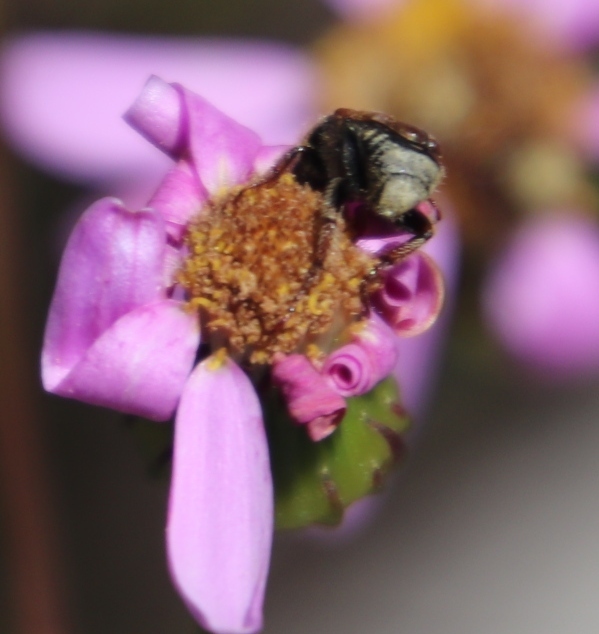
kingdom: Plantae
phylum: Tracheophyta
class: Magnoliopsida
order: Asterales
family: Asteraceae
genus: Senecio
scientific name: Senecio umbellatus
